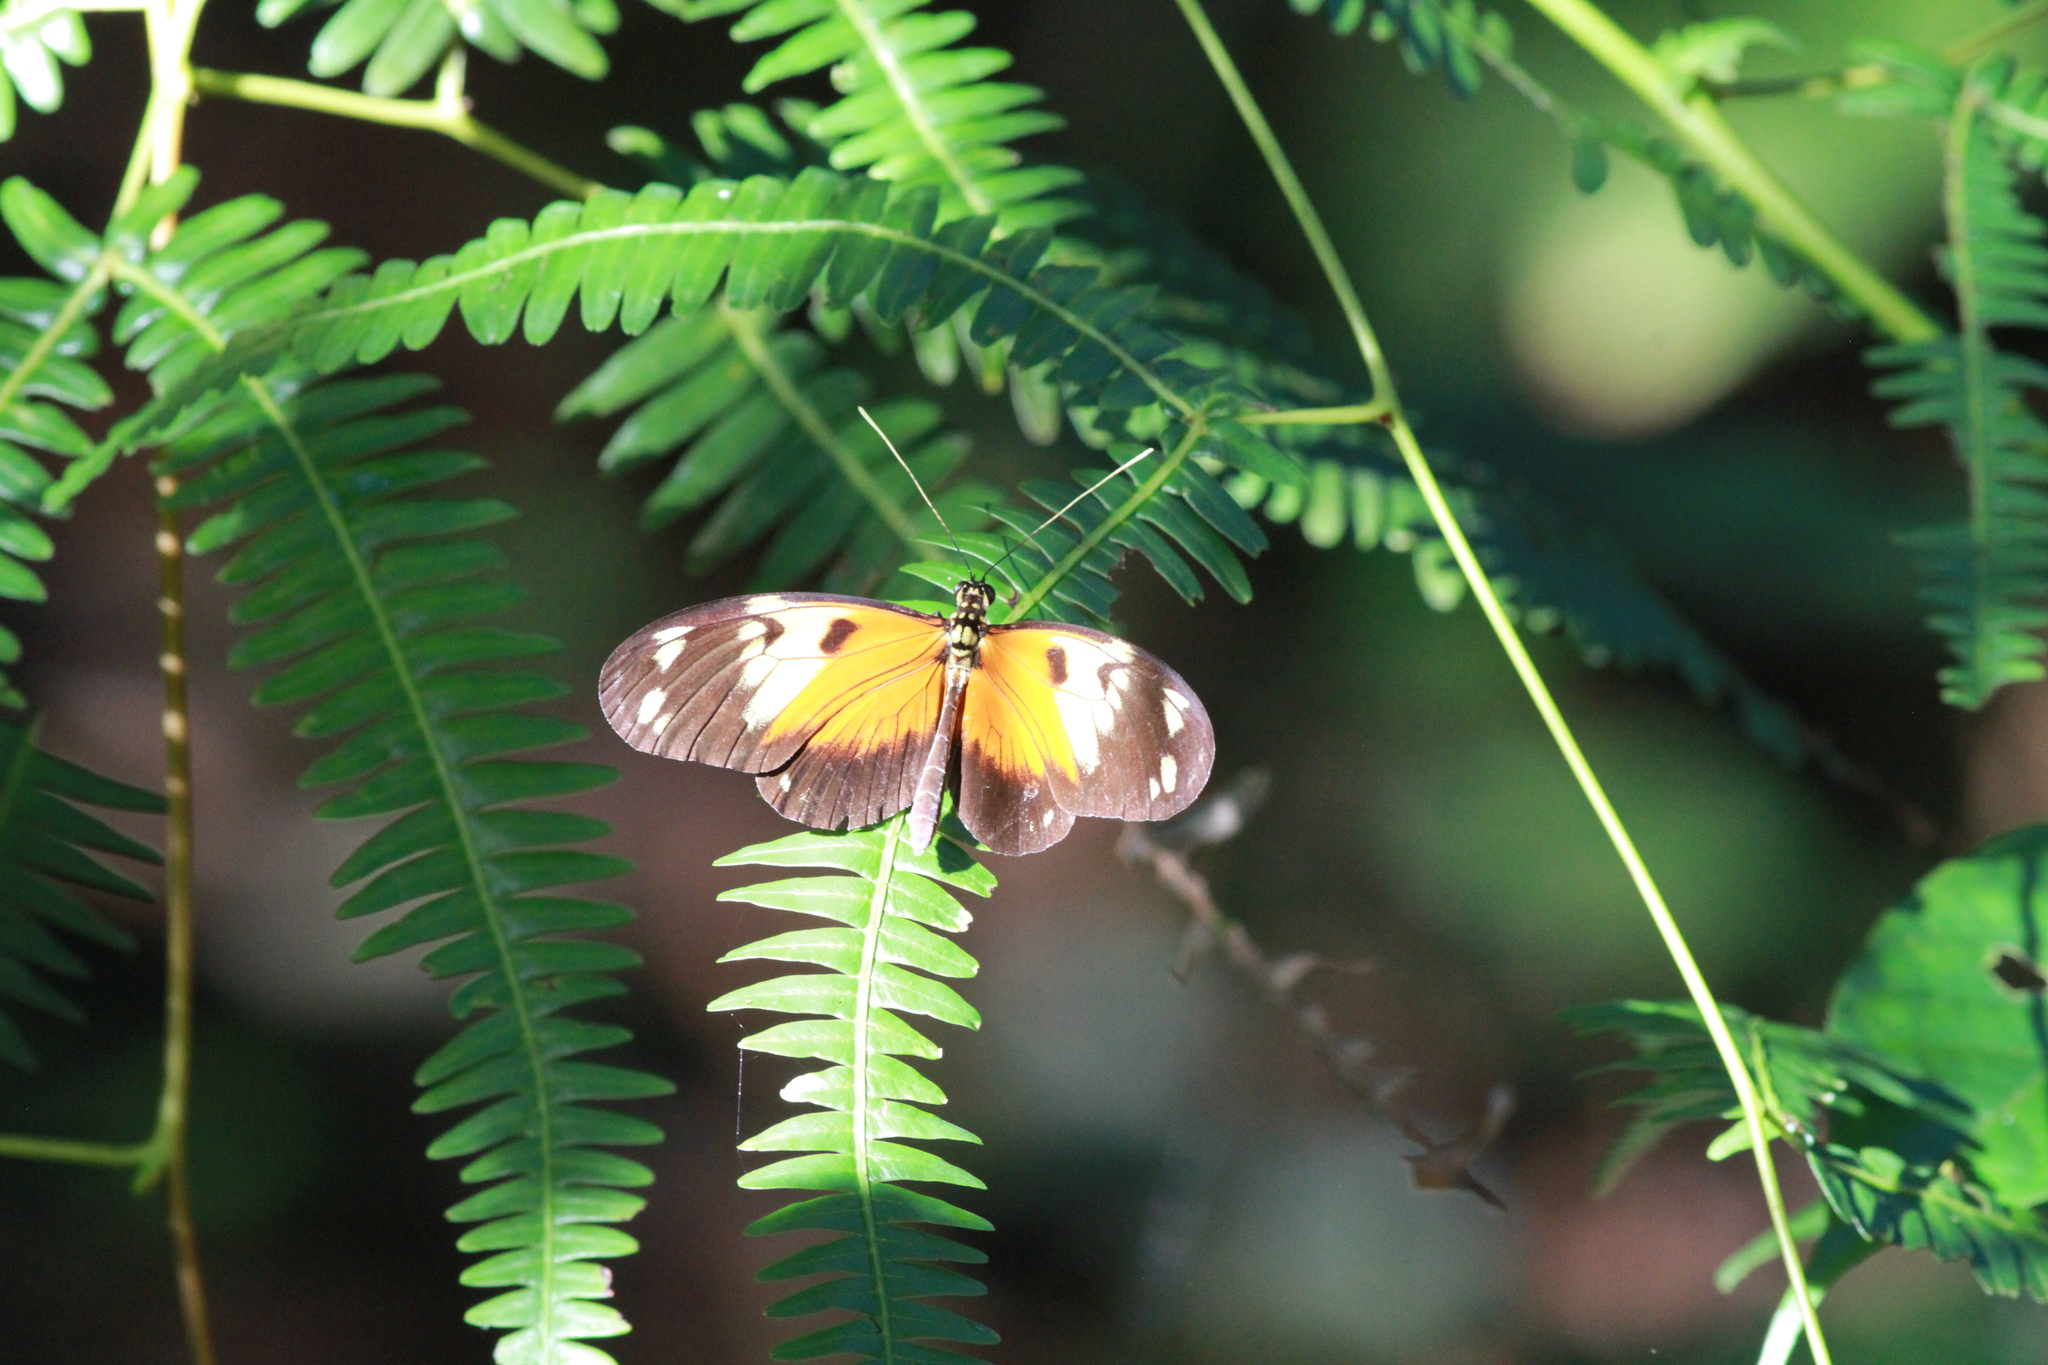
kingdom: Animalia
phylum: Arthropoda
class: Insecta
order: Lepidoptera
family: Nymphalidae
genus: Heliconius
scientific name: Heliconius ismenius
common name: Ismenius tiger
